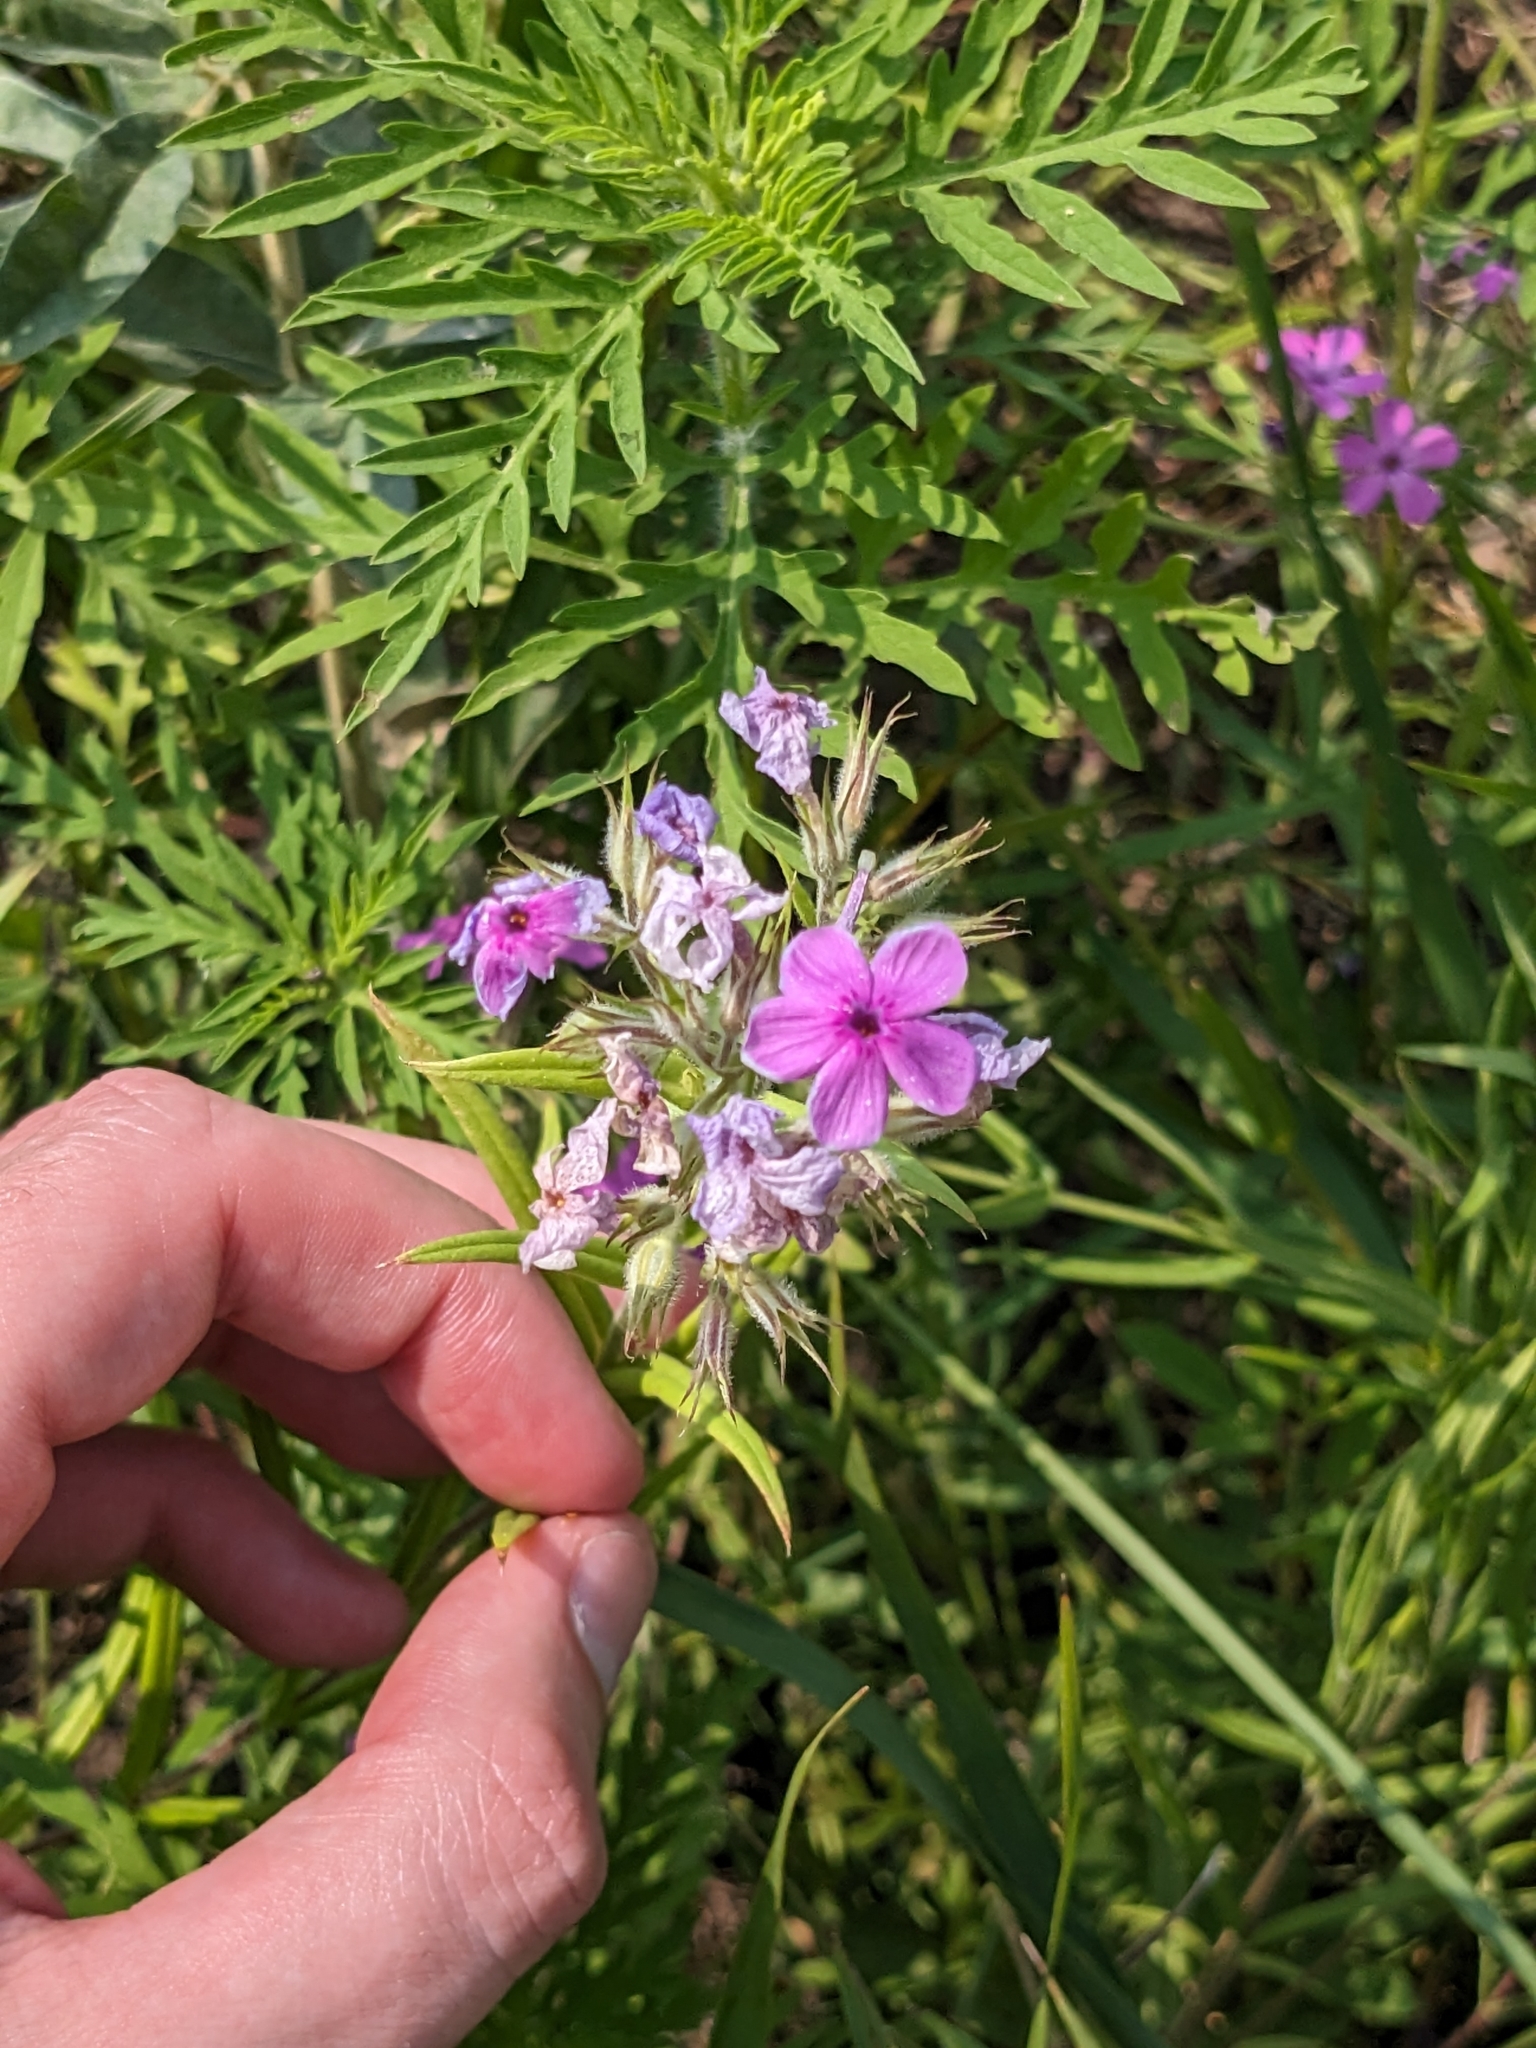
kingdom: Plantae
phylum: Tracheophyta
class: Magnoliopsida
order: Ericales
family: Polemoniaceae
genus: Phlox
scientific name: Phlox pilosa
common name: Prairie phlox
